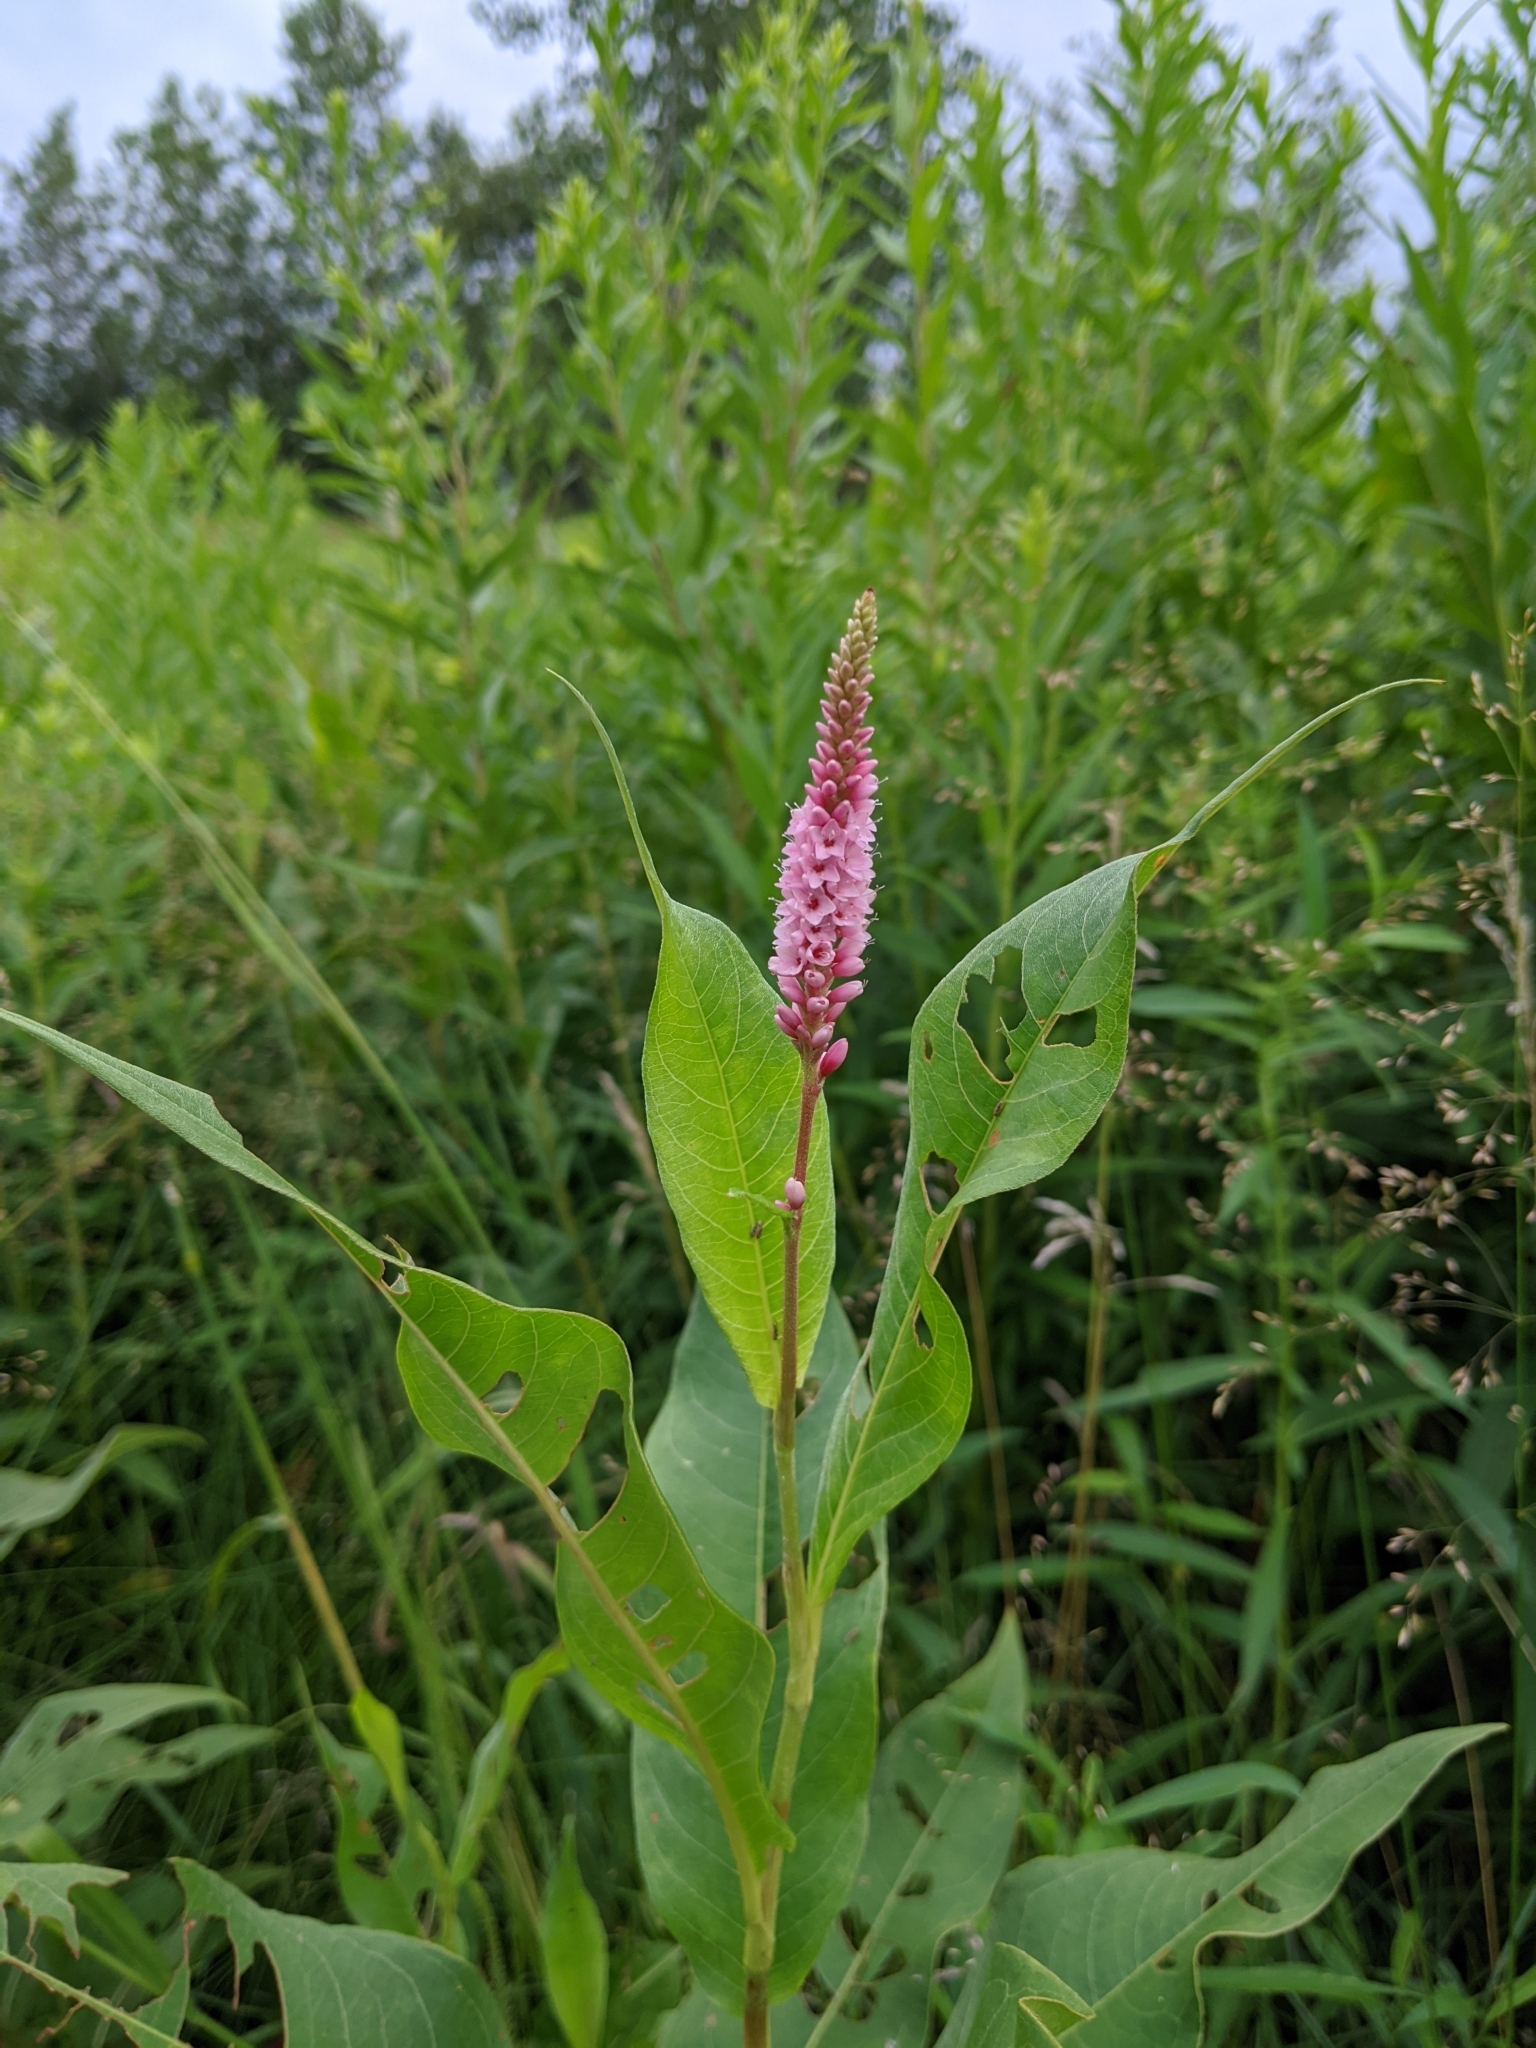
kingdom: Plantae
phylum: Tracheophyta
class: Magnoliopsida
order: Caryophyllales
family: Polygonaceae
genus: Persicaria
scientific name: Persicaria amphibia
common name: Amphibious bistort
